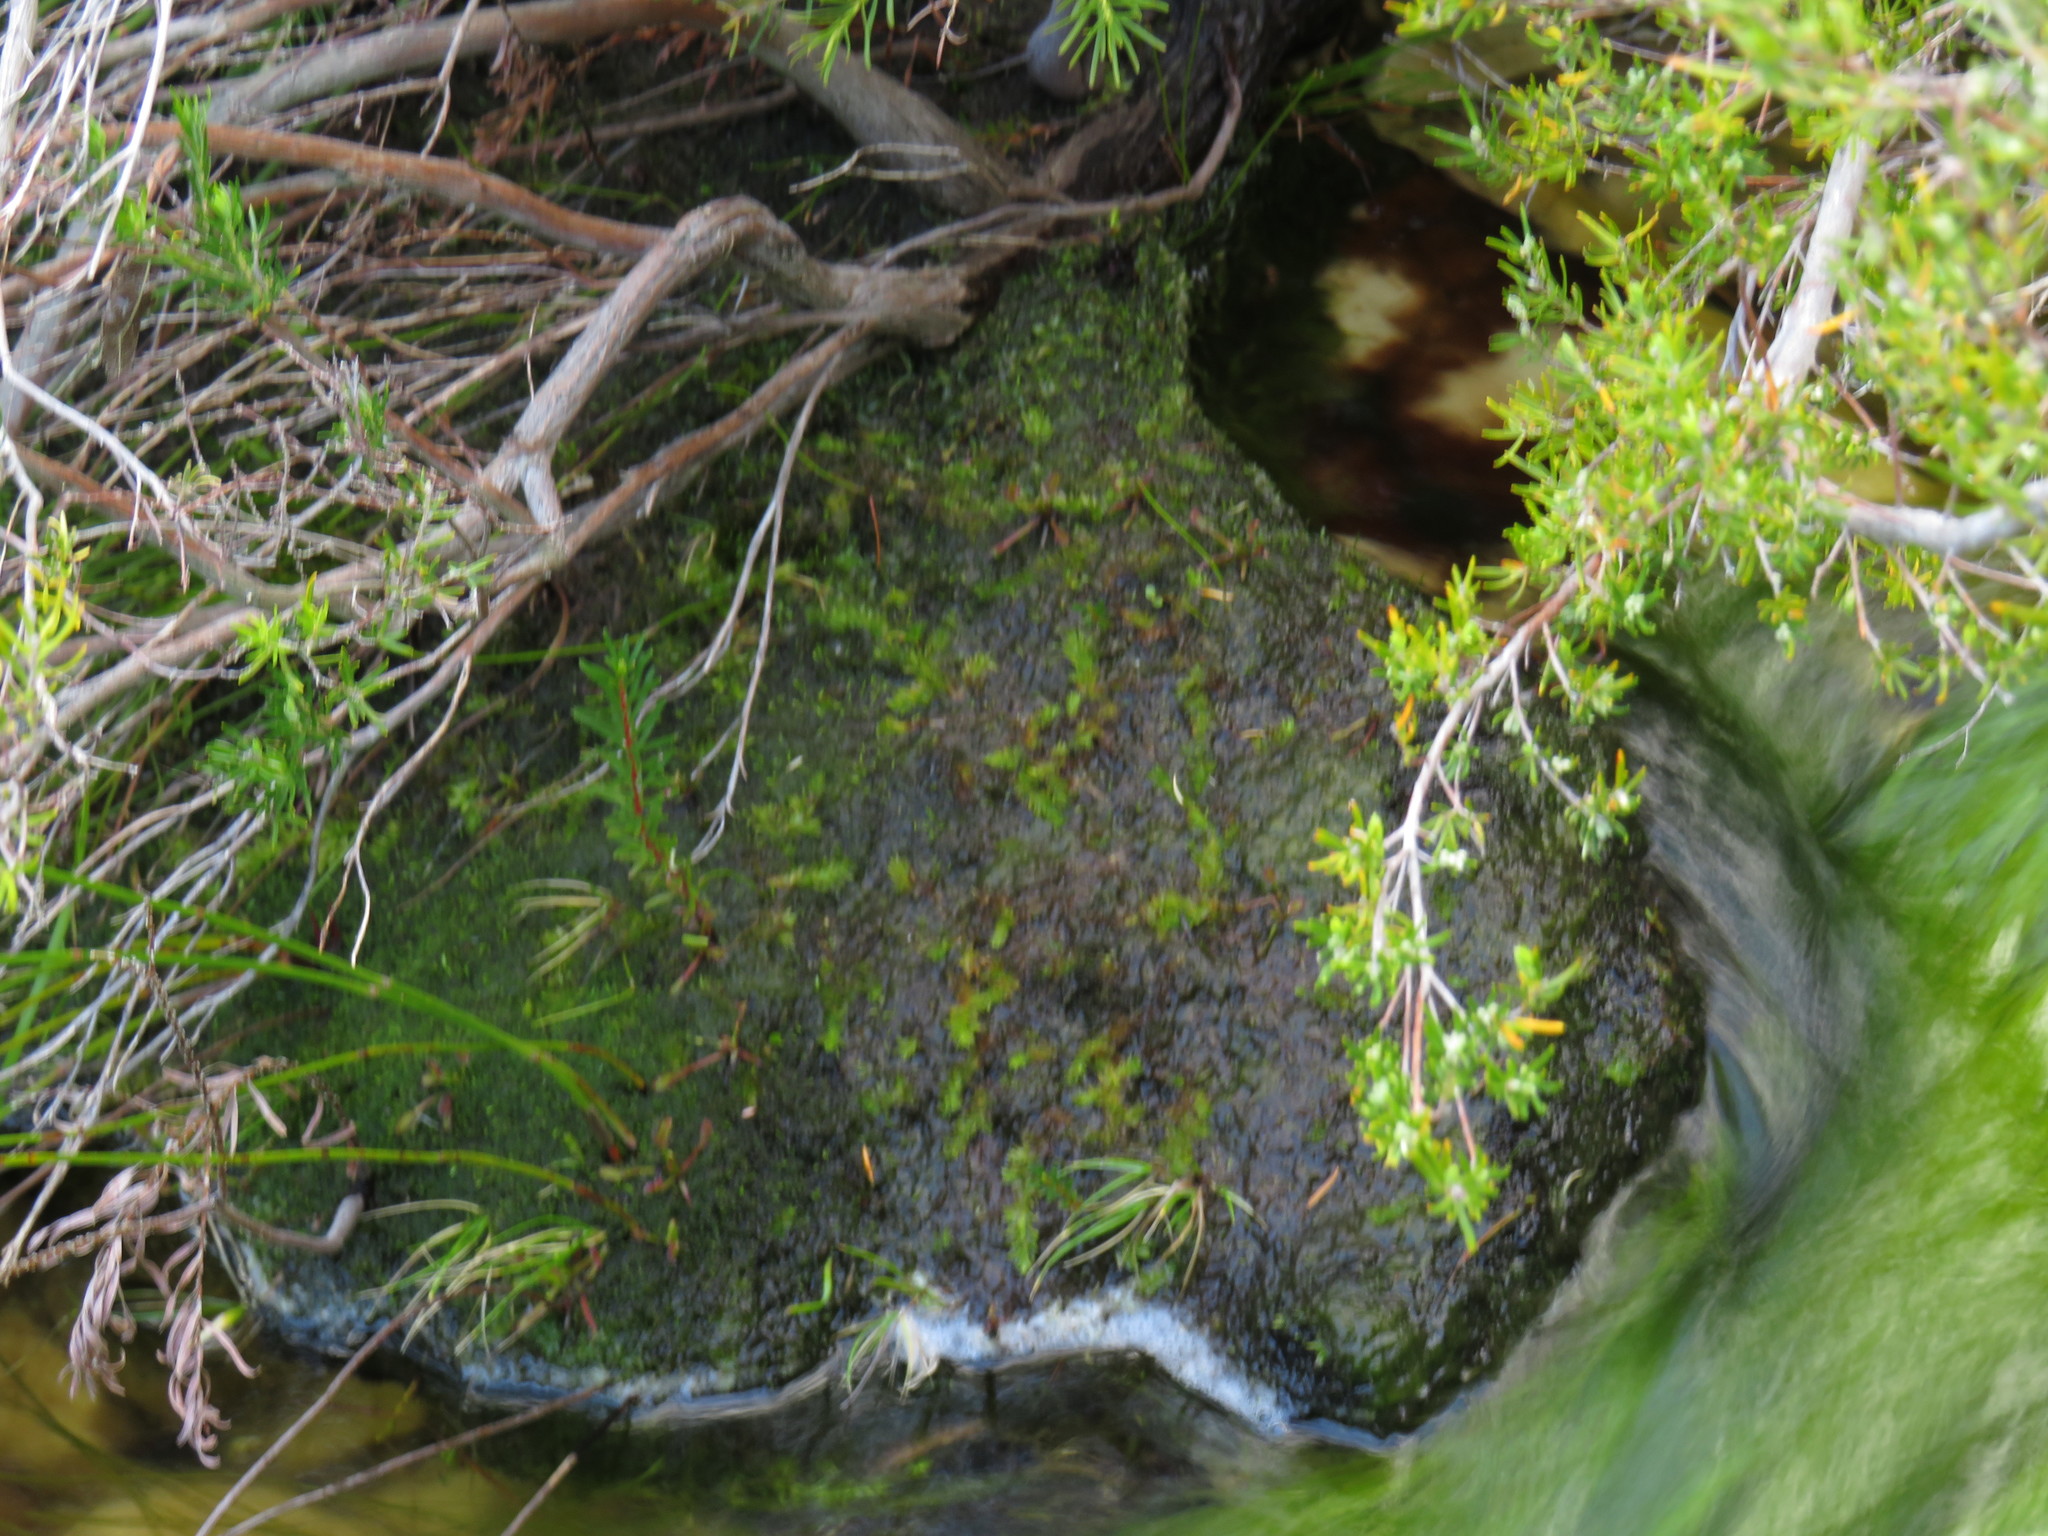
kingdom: Plantae
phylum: Tracheophyta
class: Lycopodiopsida
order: Lycopodiales
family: Lycopodiaceae
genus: Pseudolycopodiella
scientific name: Pseudolycopodiella caroliniana
